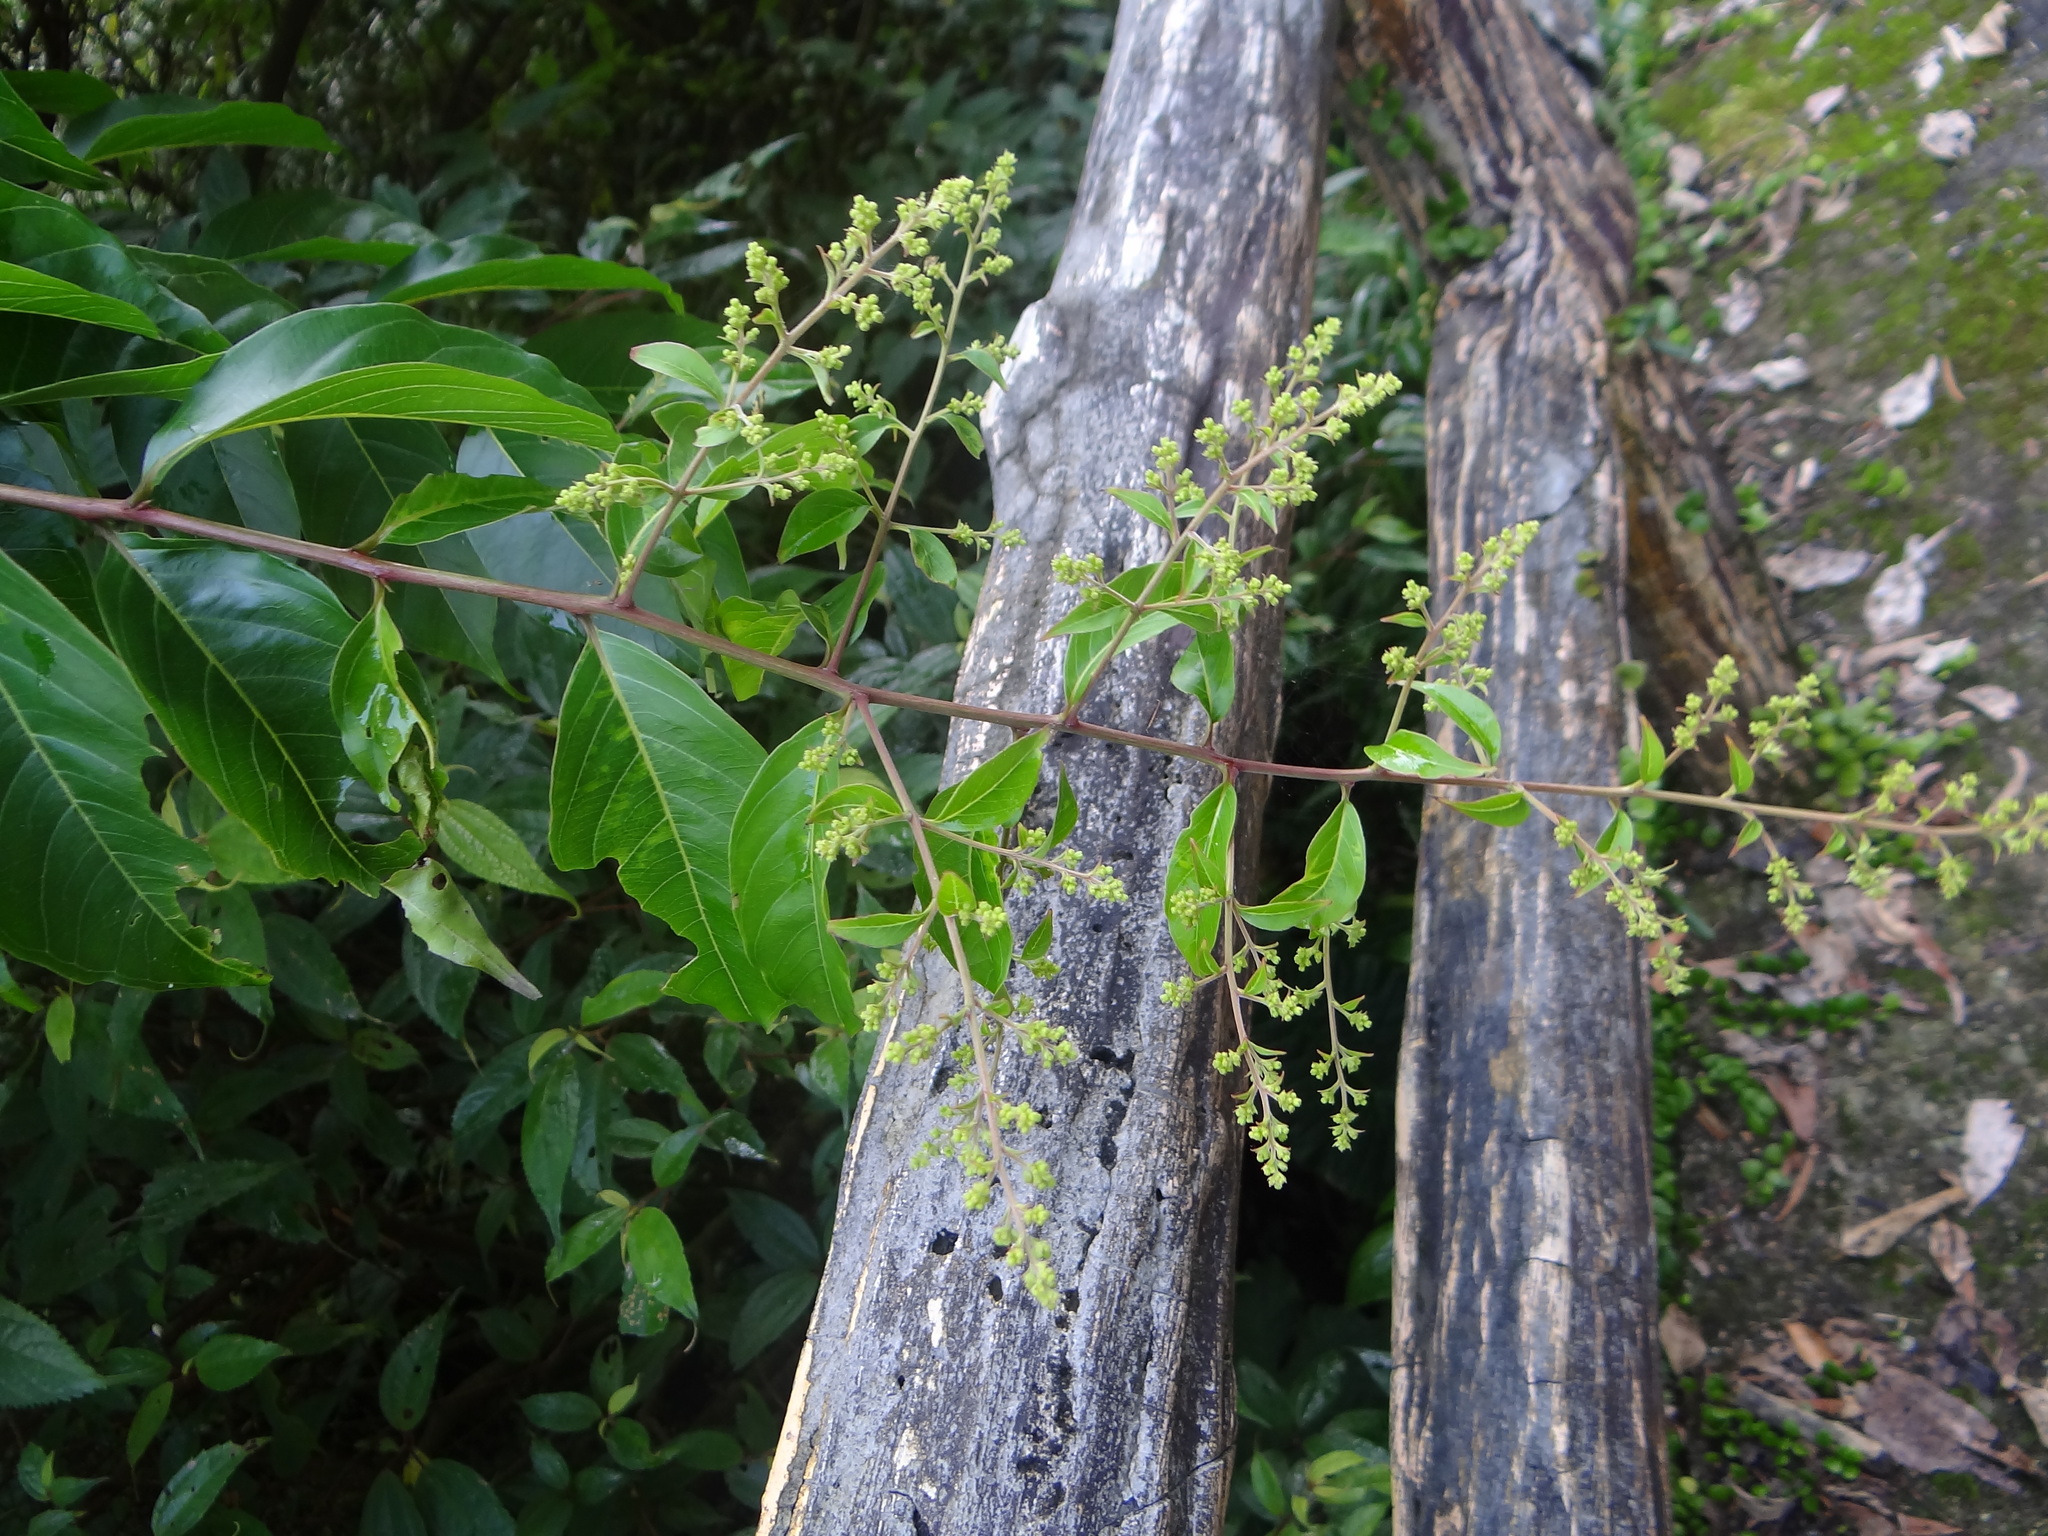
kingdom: Plantae
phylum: Tracheophyta
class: Magnoliopsida
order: Myrtales
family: Lythraceae
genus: Lagerstroemia
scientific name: Lagerstroemia subcostata
